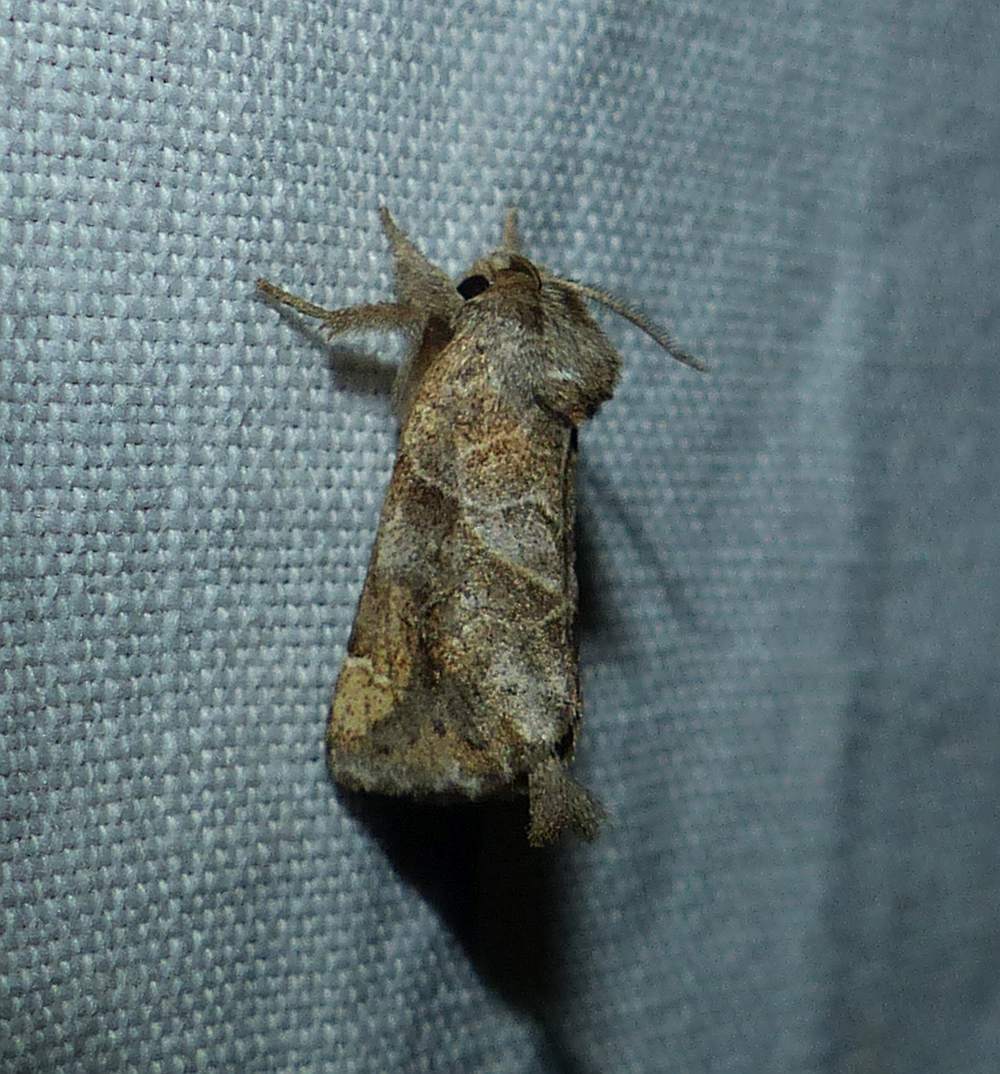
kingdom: Animalia
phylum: Arthropoda
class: Insecta
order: Lepidoptera
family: Notodontidae
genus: Clostera
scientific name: Clostera strigosa
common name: Striped chocolate-tip moth
